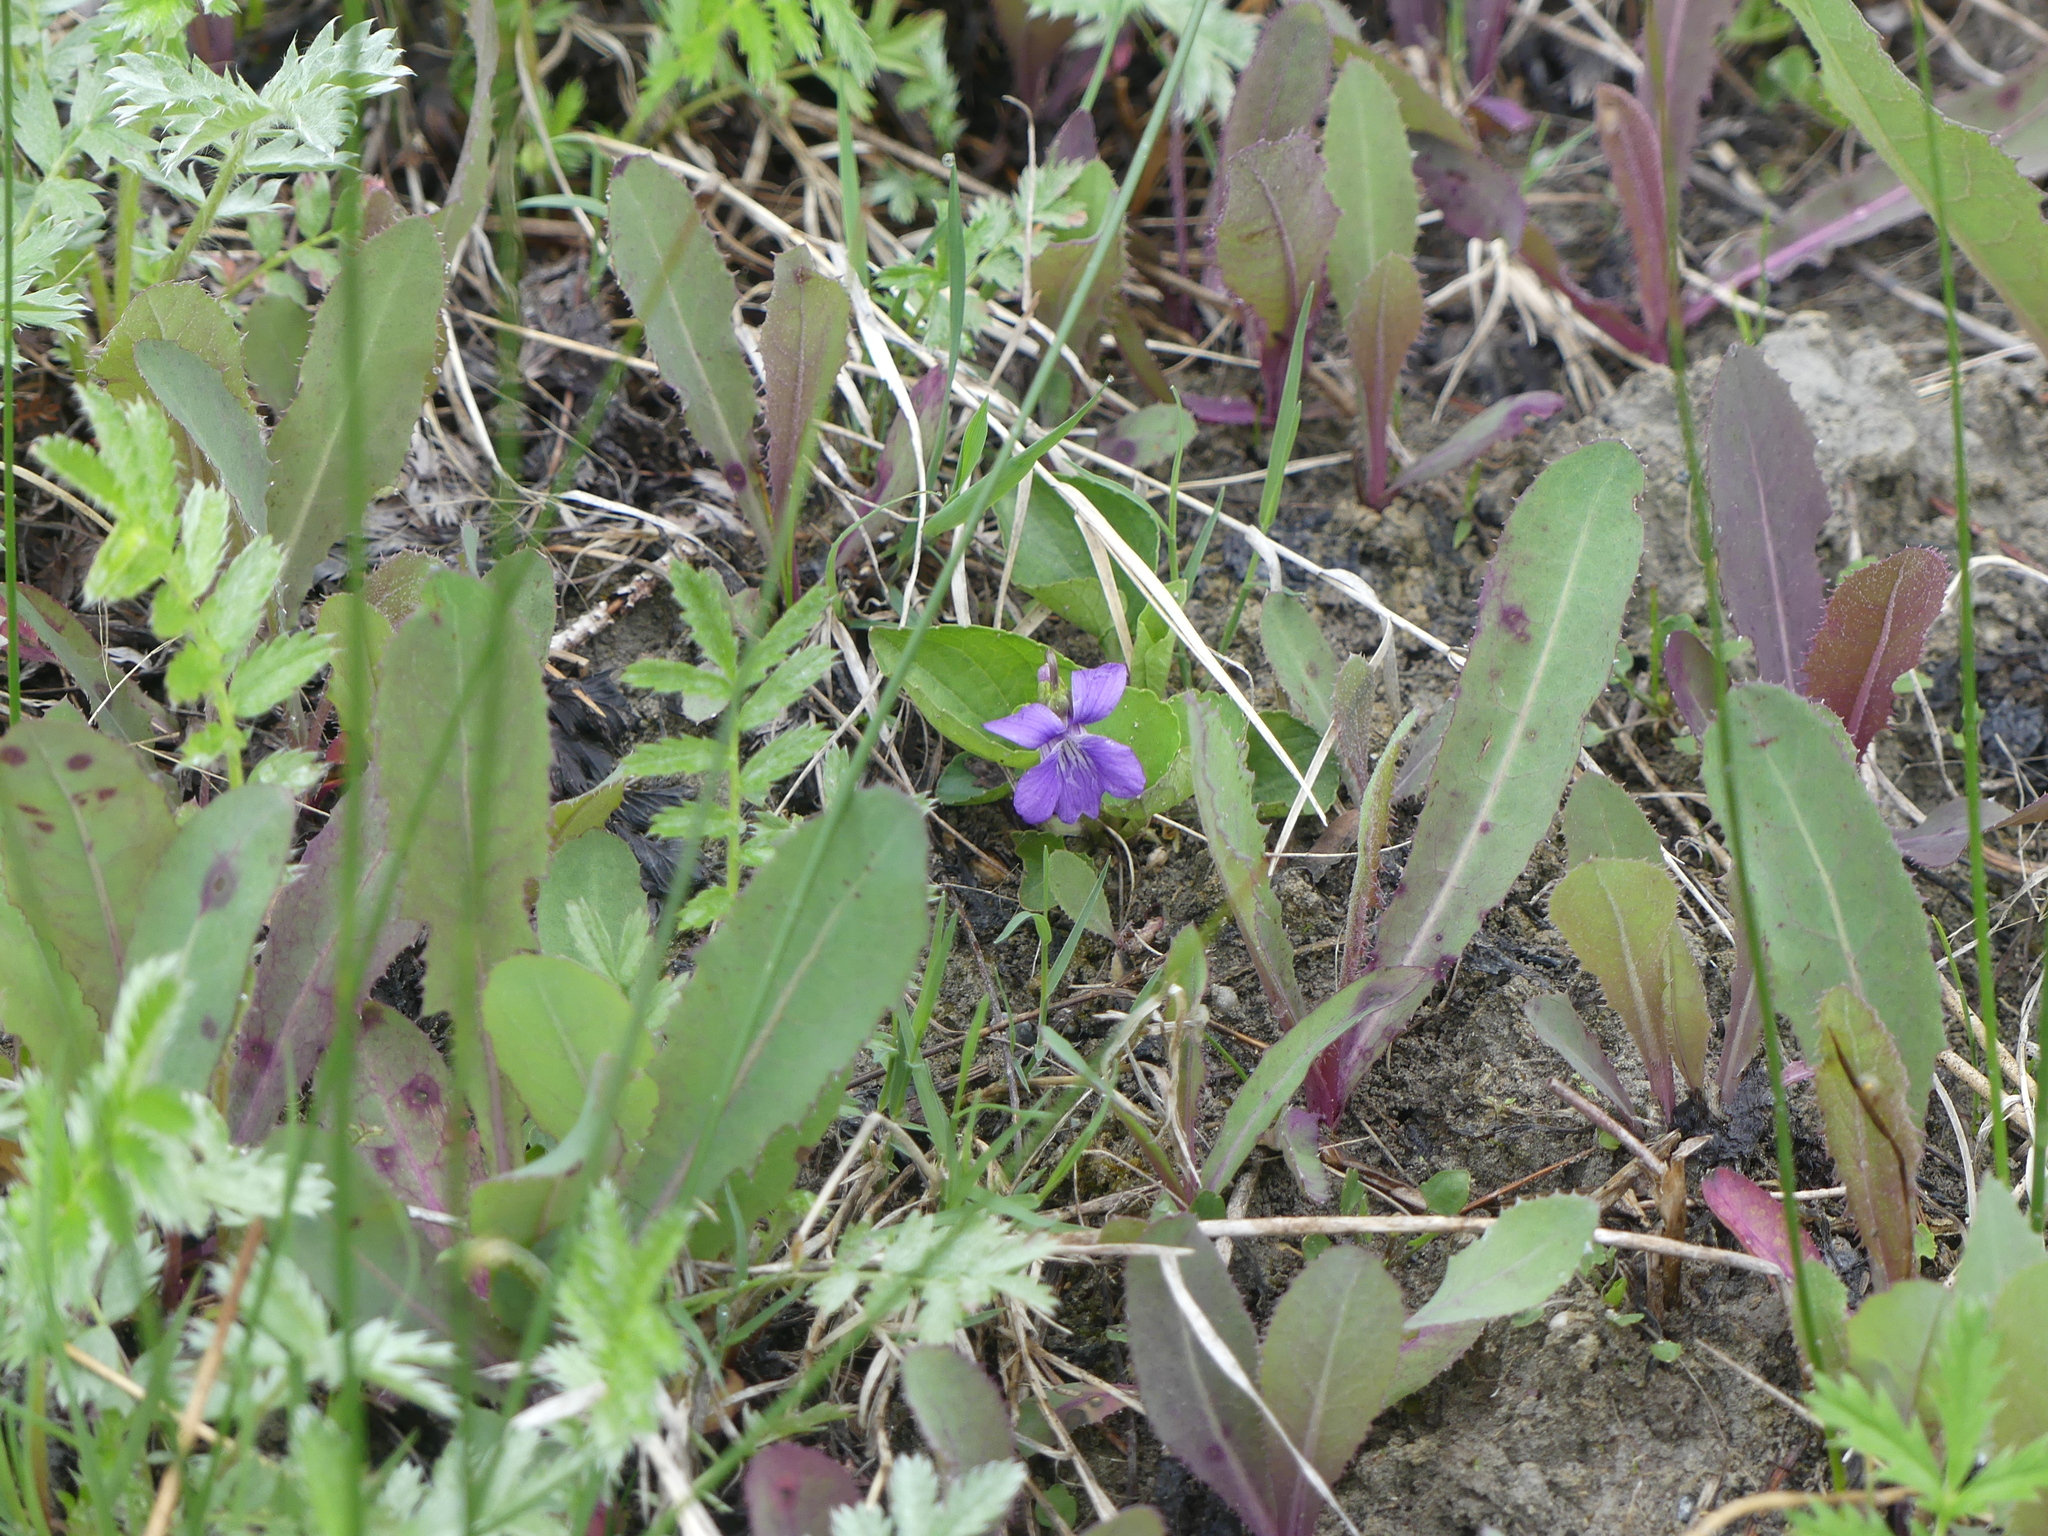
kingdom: Plantae
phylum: Tracheophyta
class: Magnoliopsida
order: Malpighiales
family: Violaceae
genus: Viola
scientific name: Viola nephrophylla
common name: Blue meadow violet
